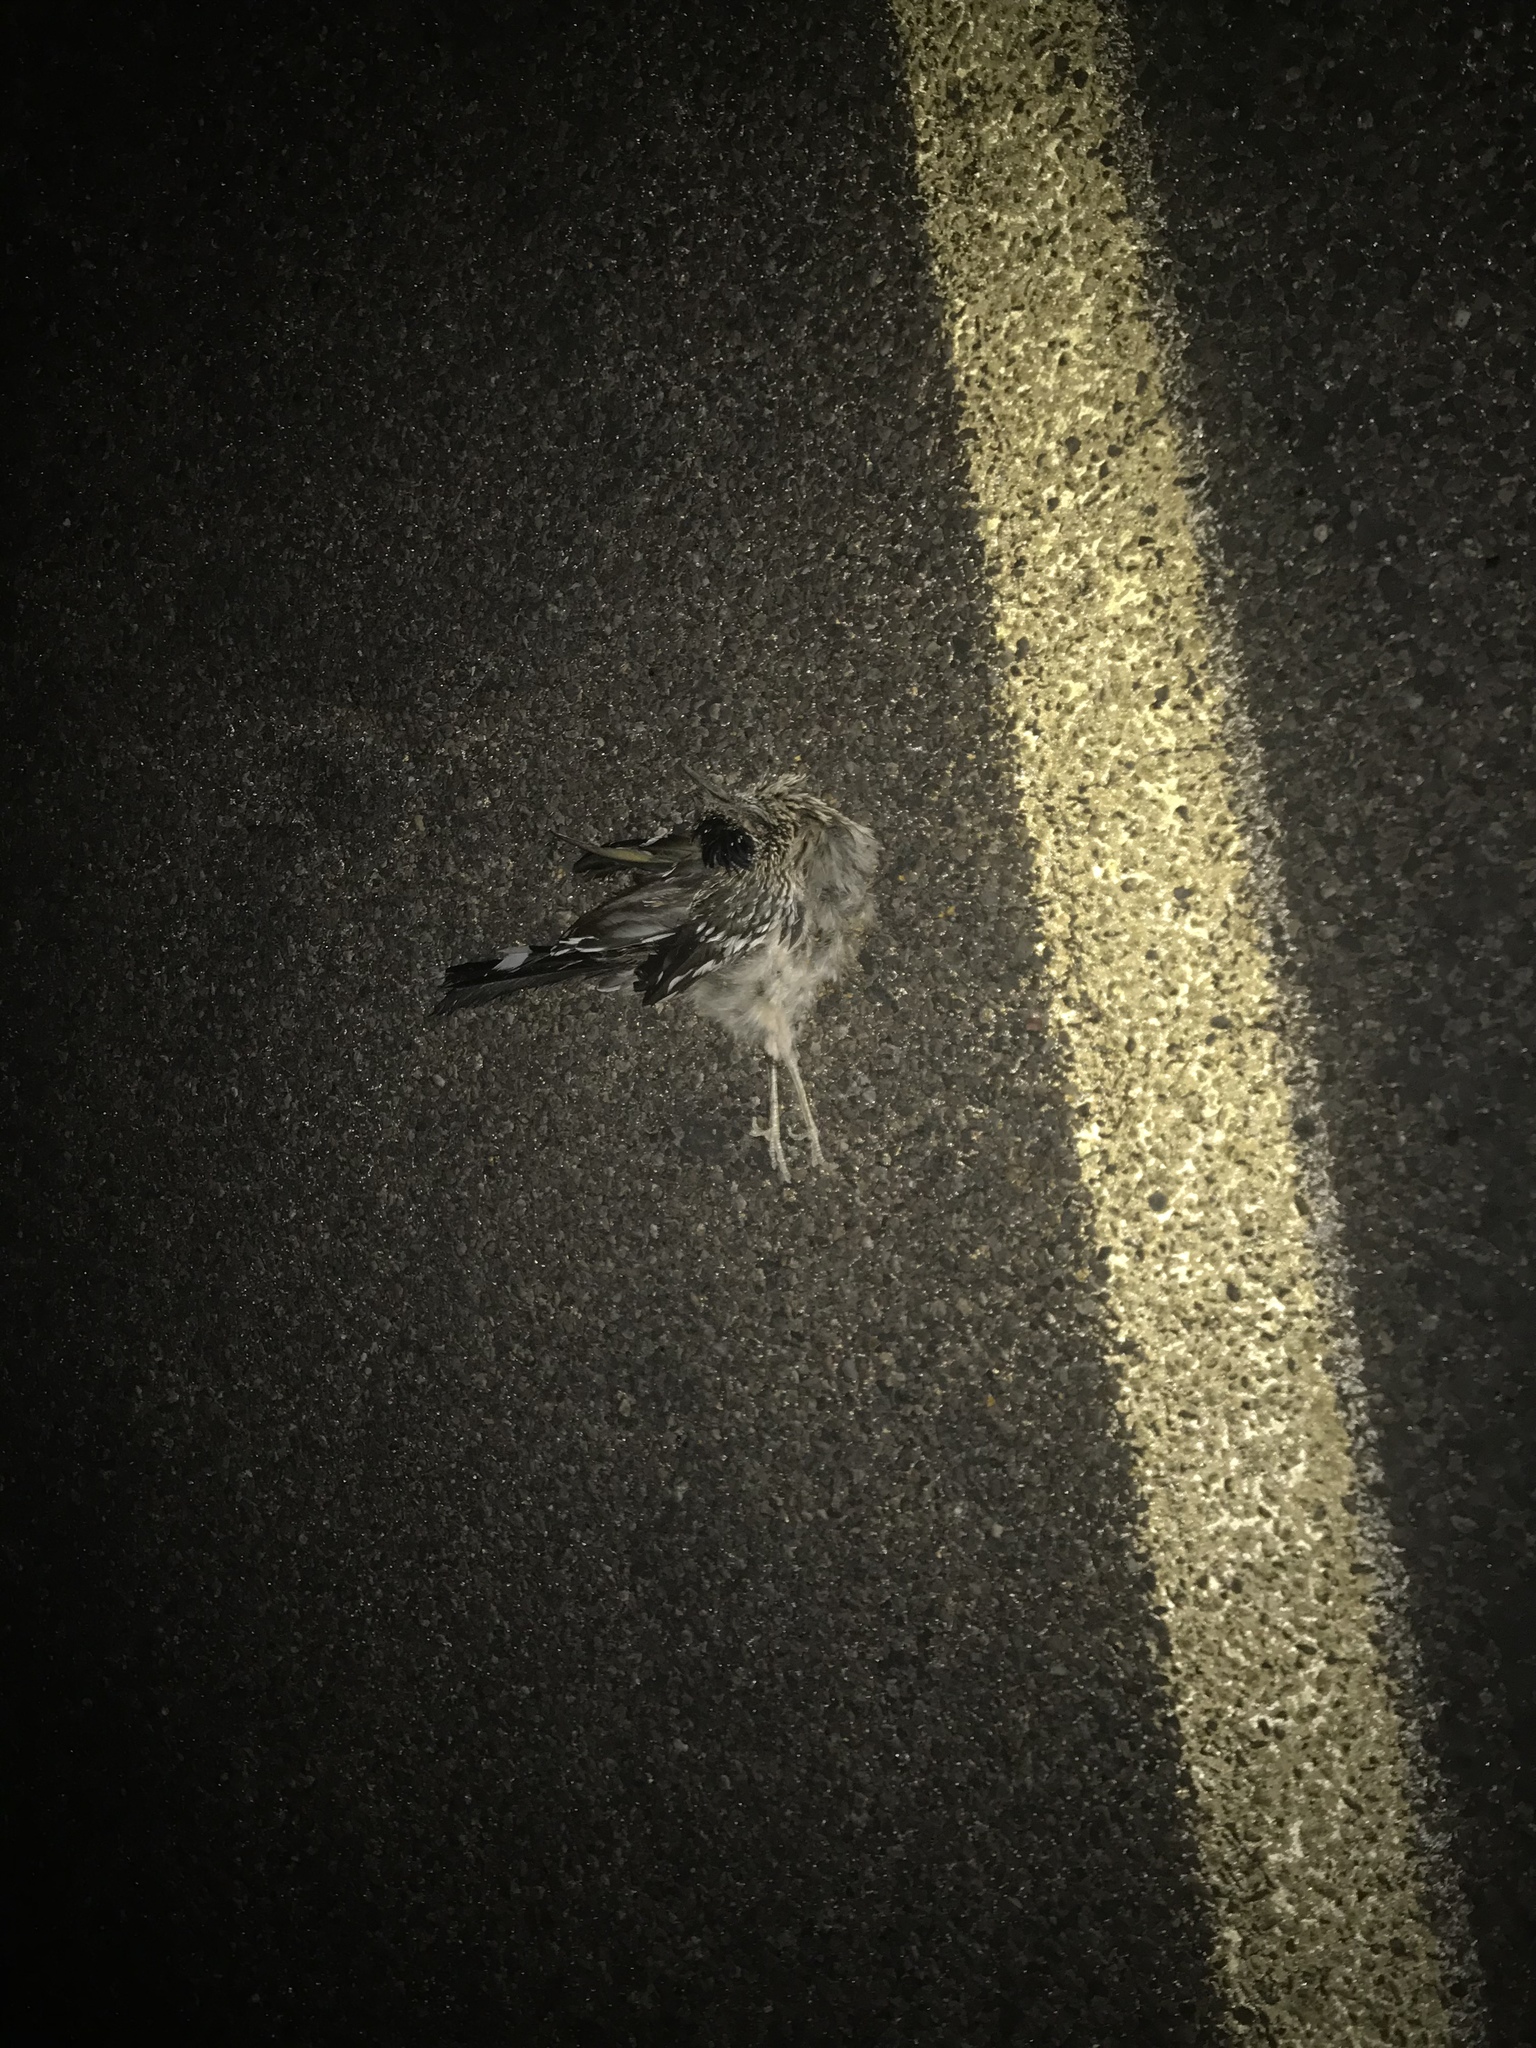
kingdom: Animalia
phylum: Chordata
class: Aves
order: Cuculiformes
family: Cuculidae
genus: Geococcyx
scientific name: Geococcyx californianus
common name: Greater roadrunner
